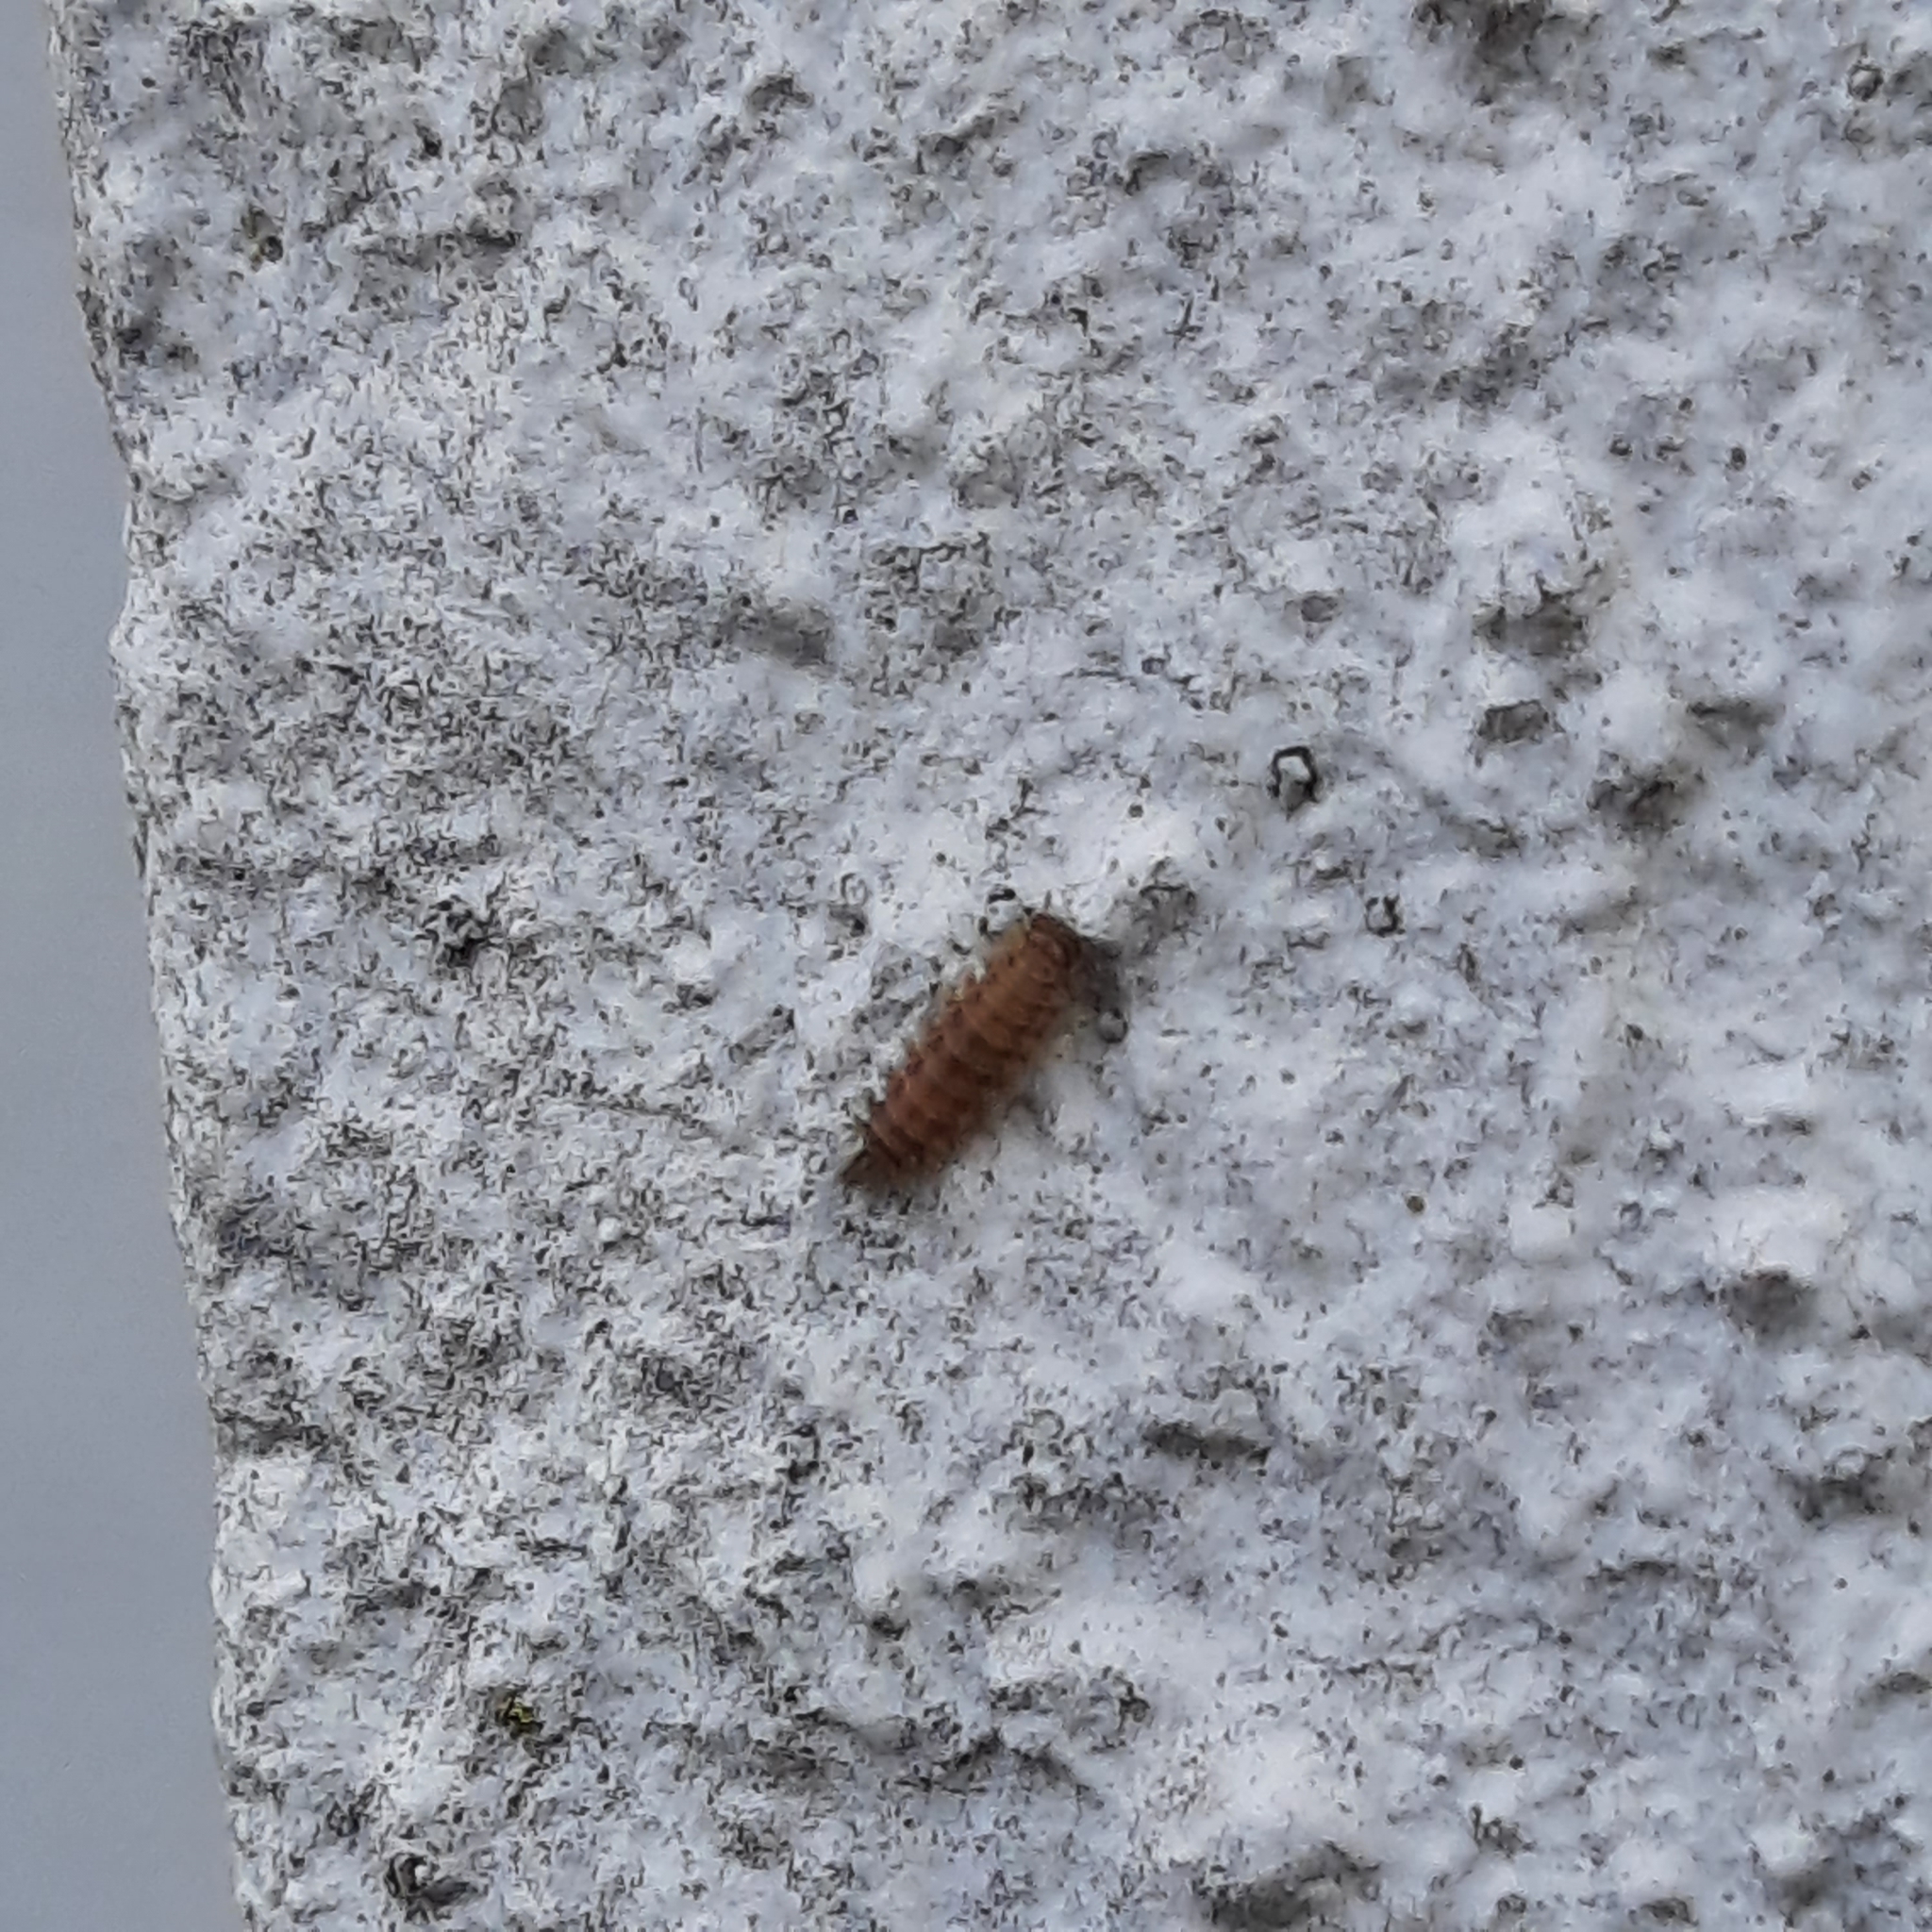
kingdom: Animalia
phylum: Arthropoda
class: Diplopoda
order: Polyxenida
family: Polyxenidae
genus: Polyxenus
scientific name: Polyxenus lagurus
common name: Bristly millipede
